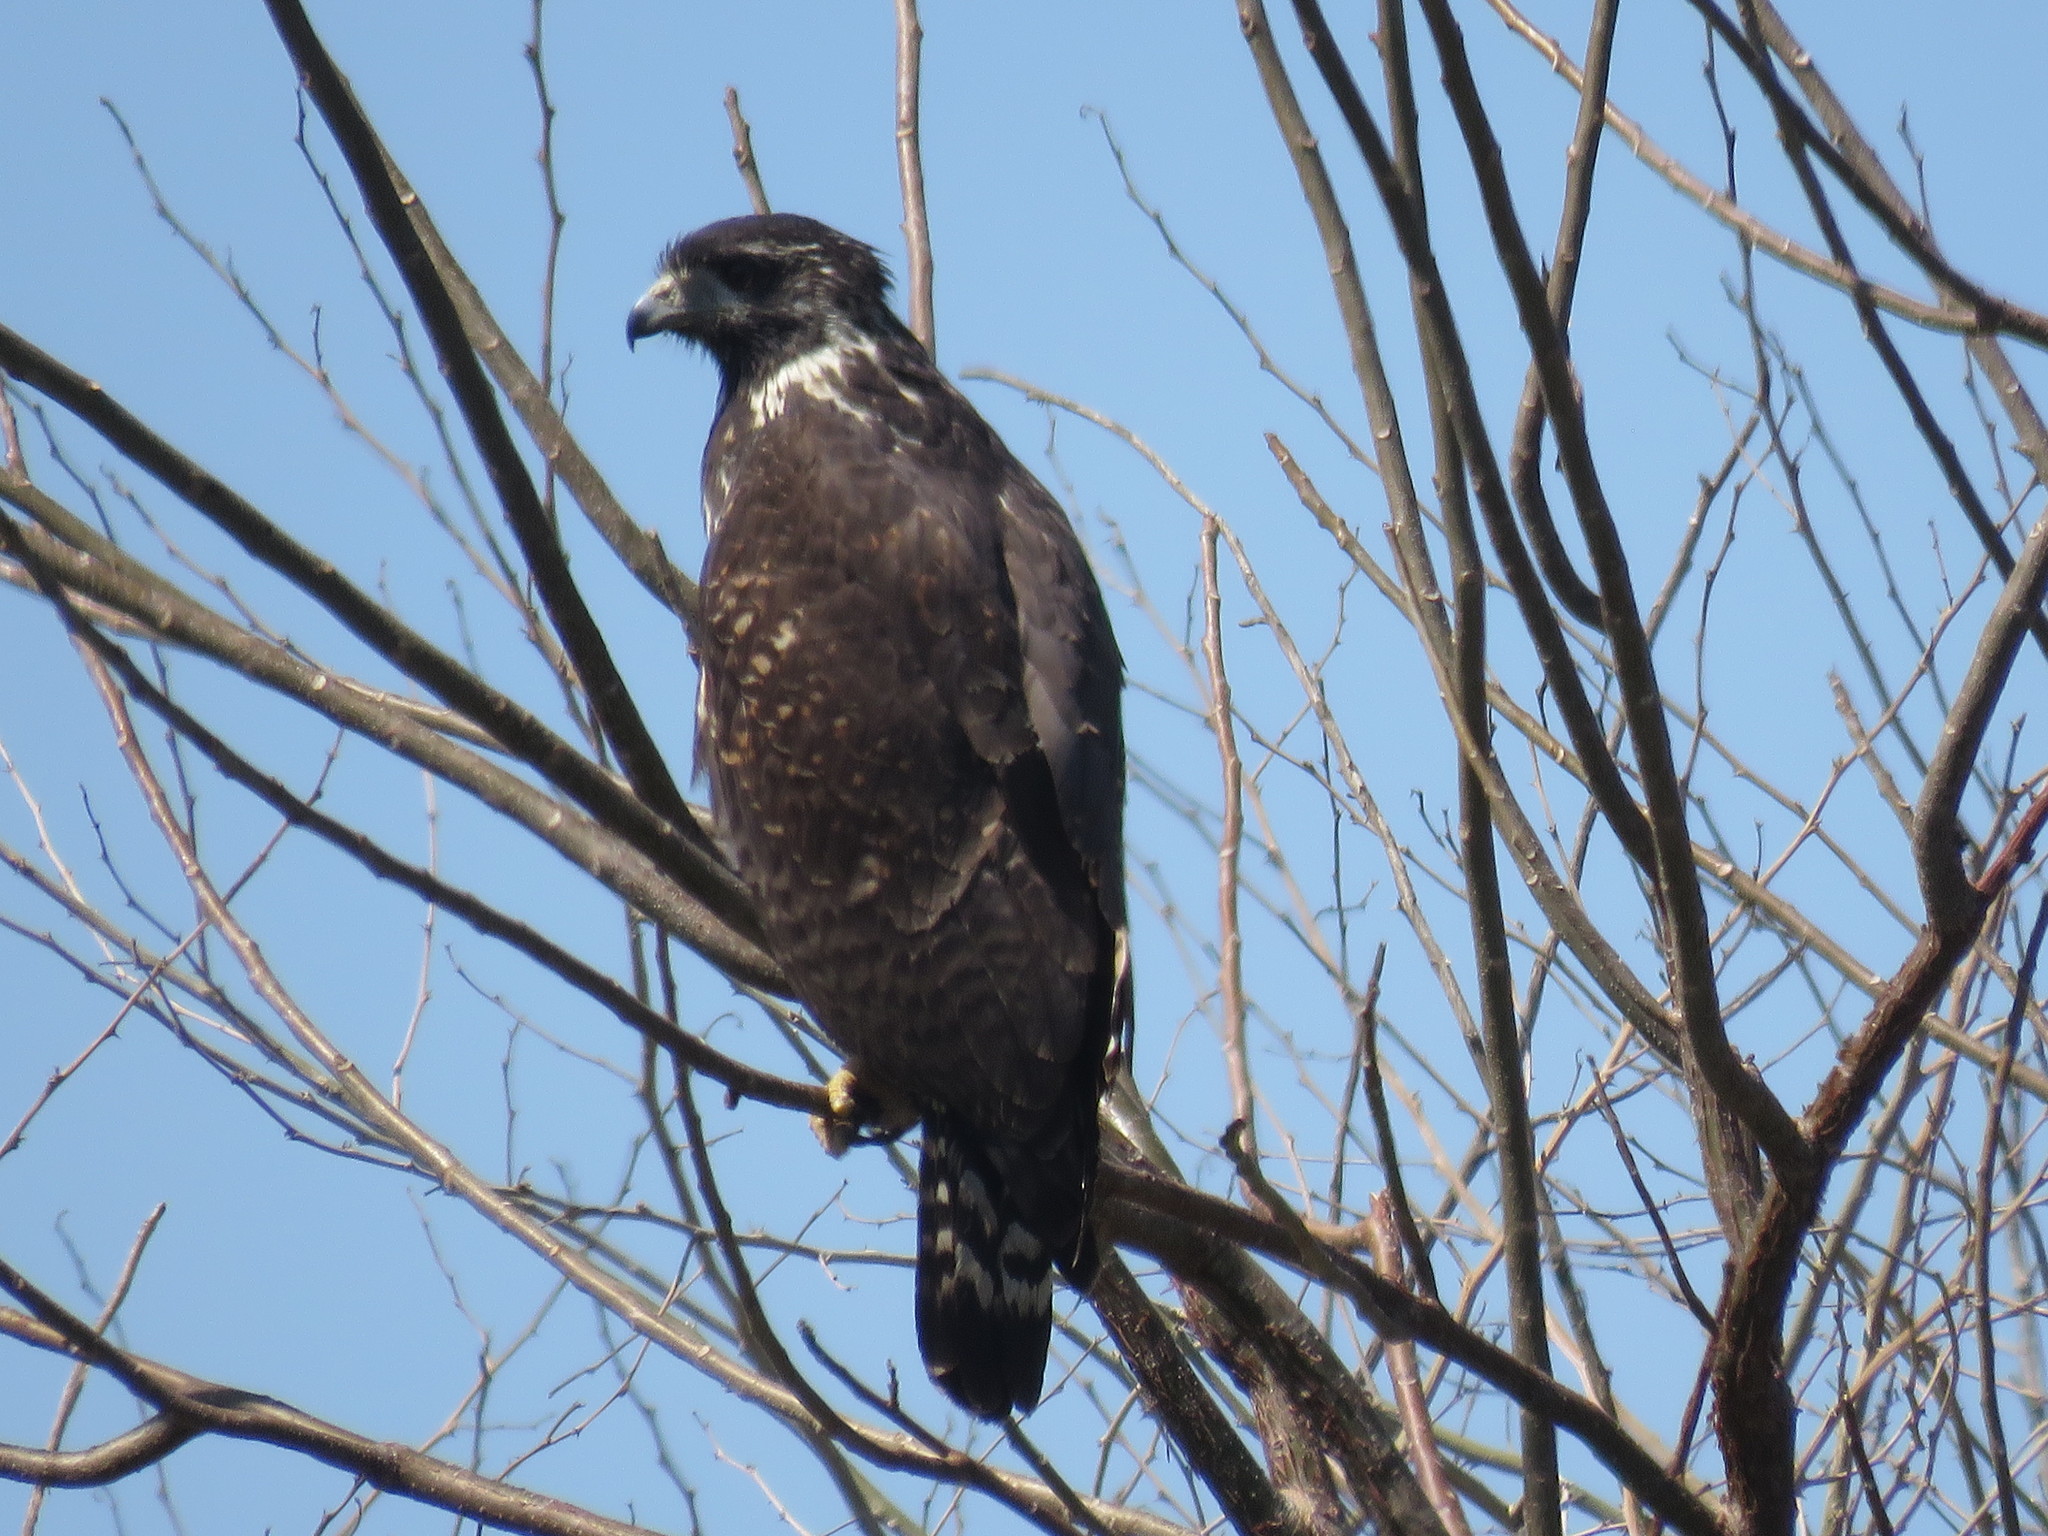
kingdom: Animalia
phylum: Chordata
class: Aves
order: Accipitriformes
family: Accipitridae
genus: Buteogallus
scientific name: Buteogallus anthracinus
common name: Common black hawk
